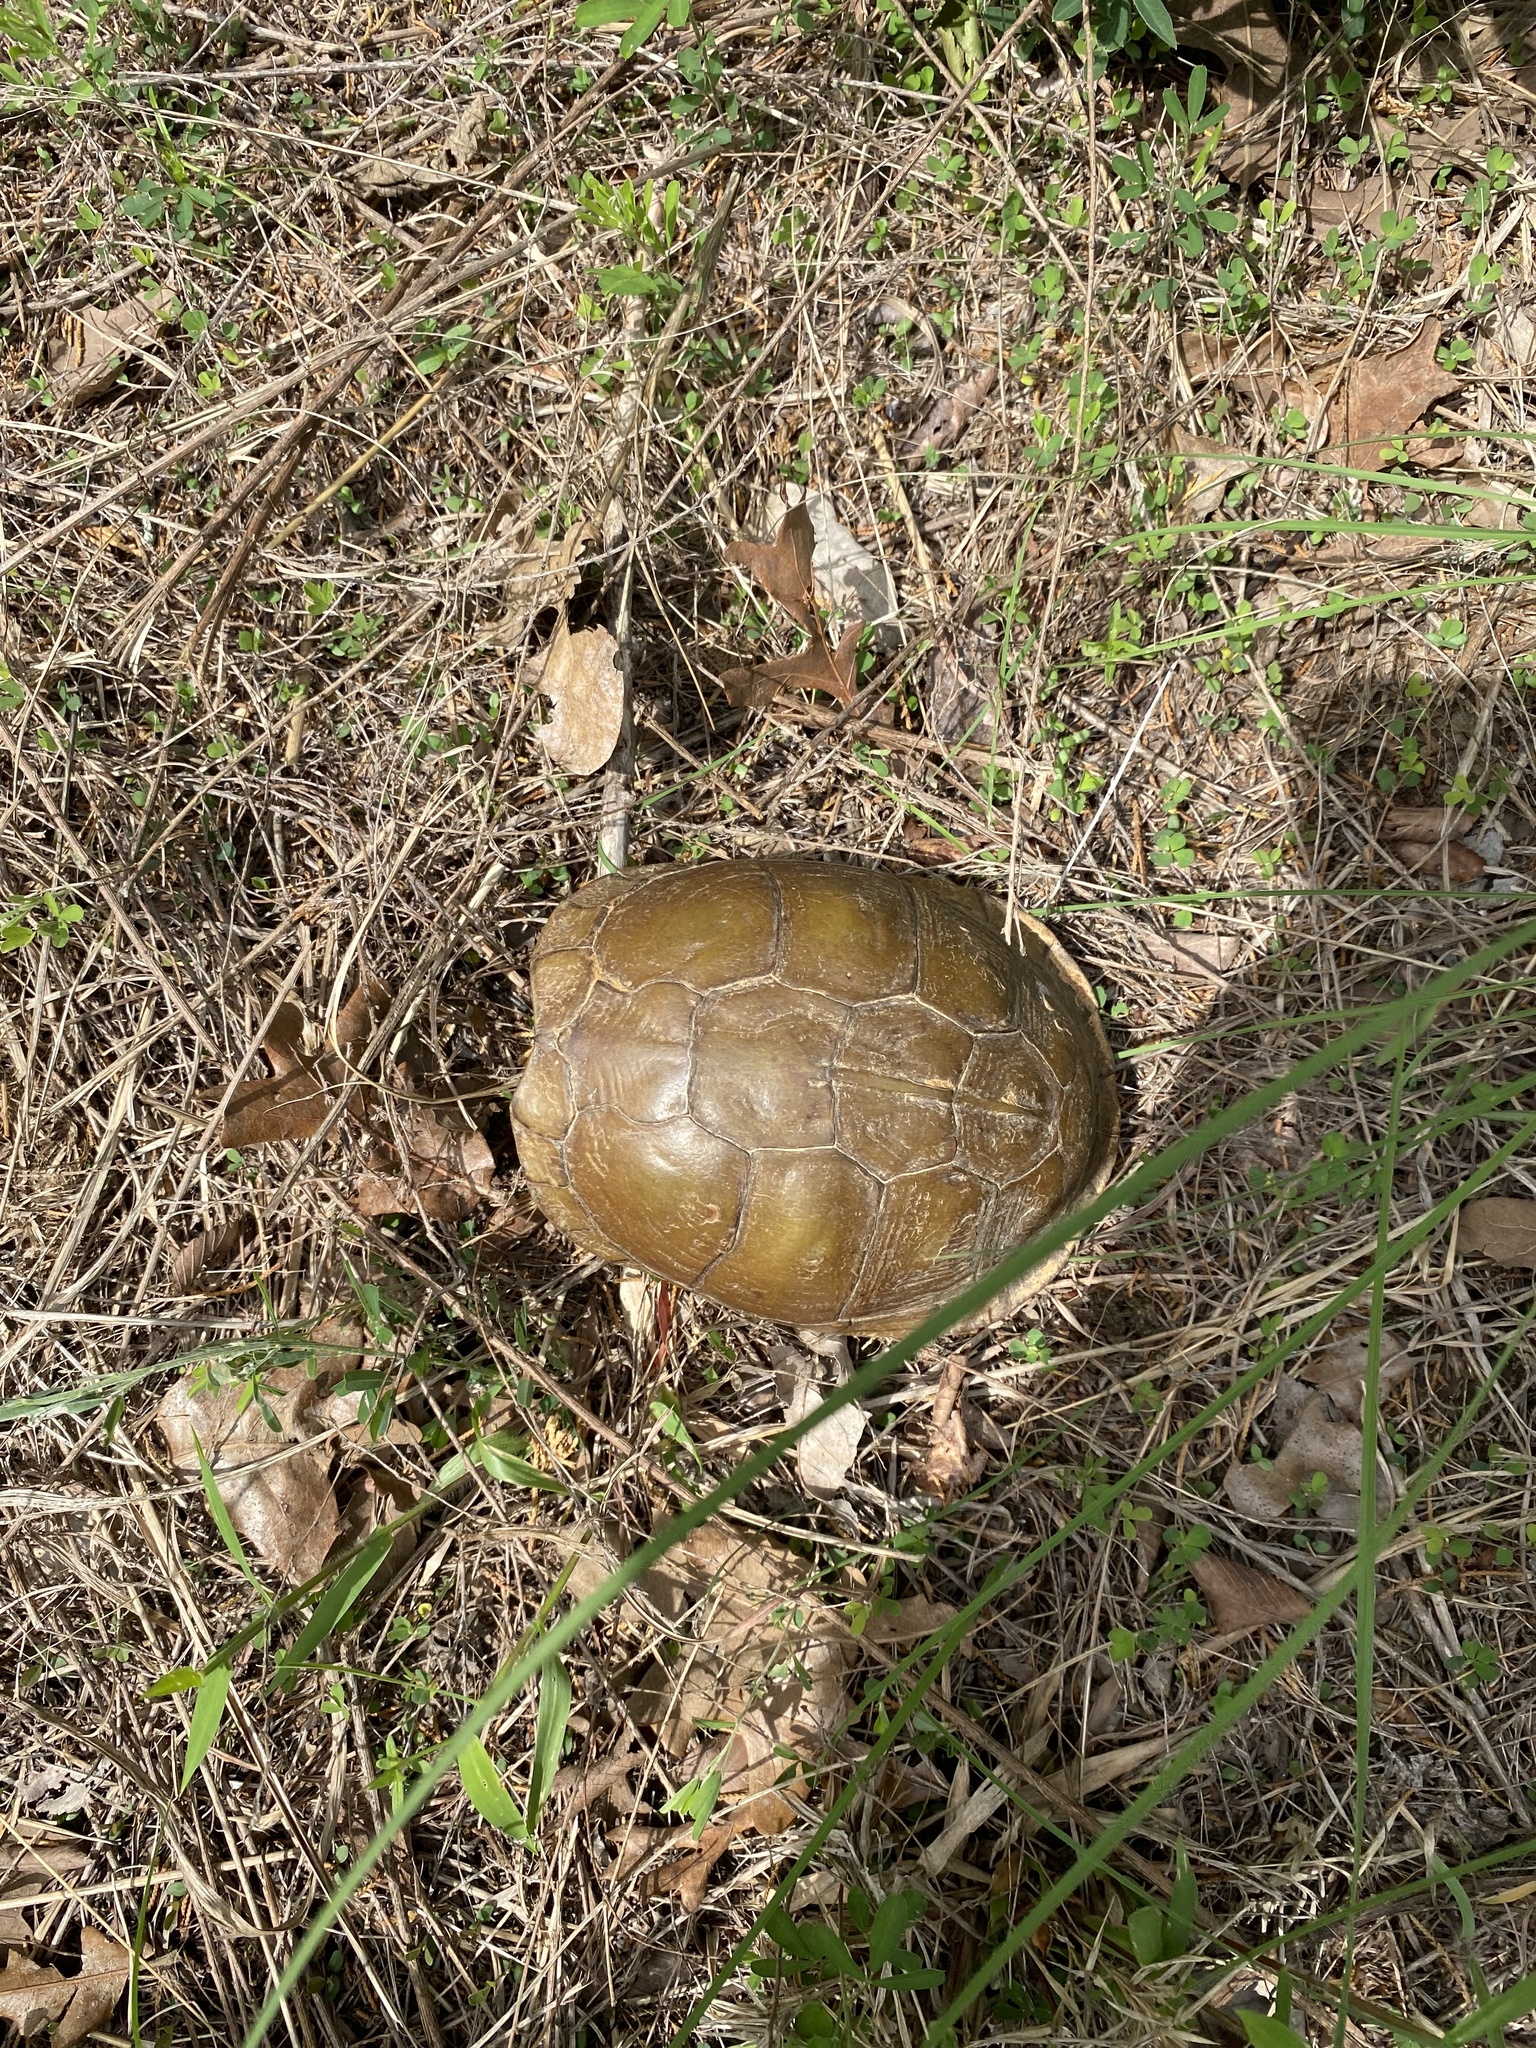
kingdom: Animalia
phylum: Chordata
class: Testudines
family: Emydidae
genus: Terrapene
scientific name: Terrapene carolina
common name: Common box turtle
